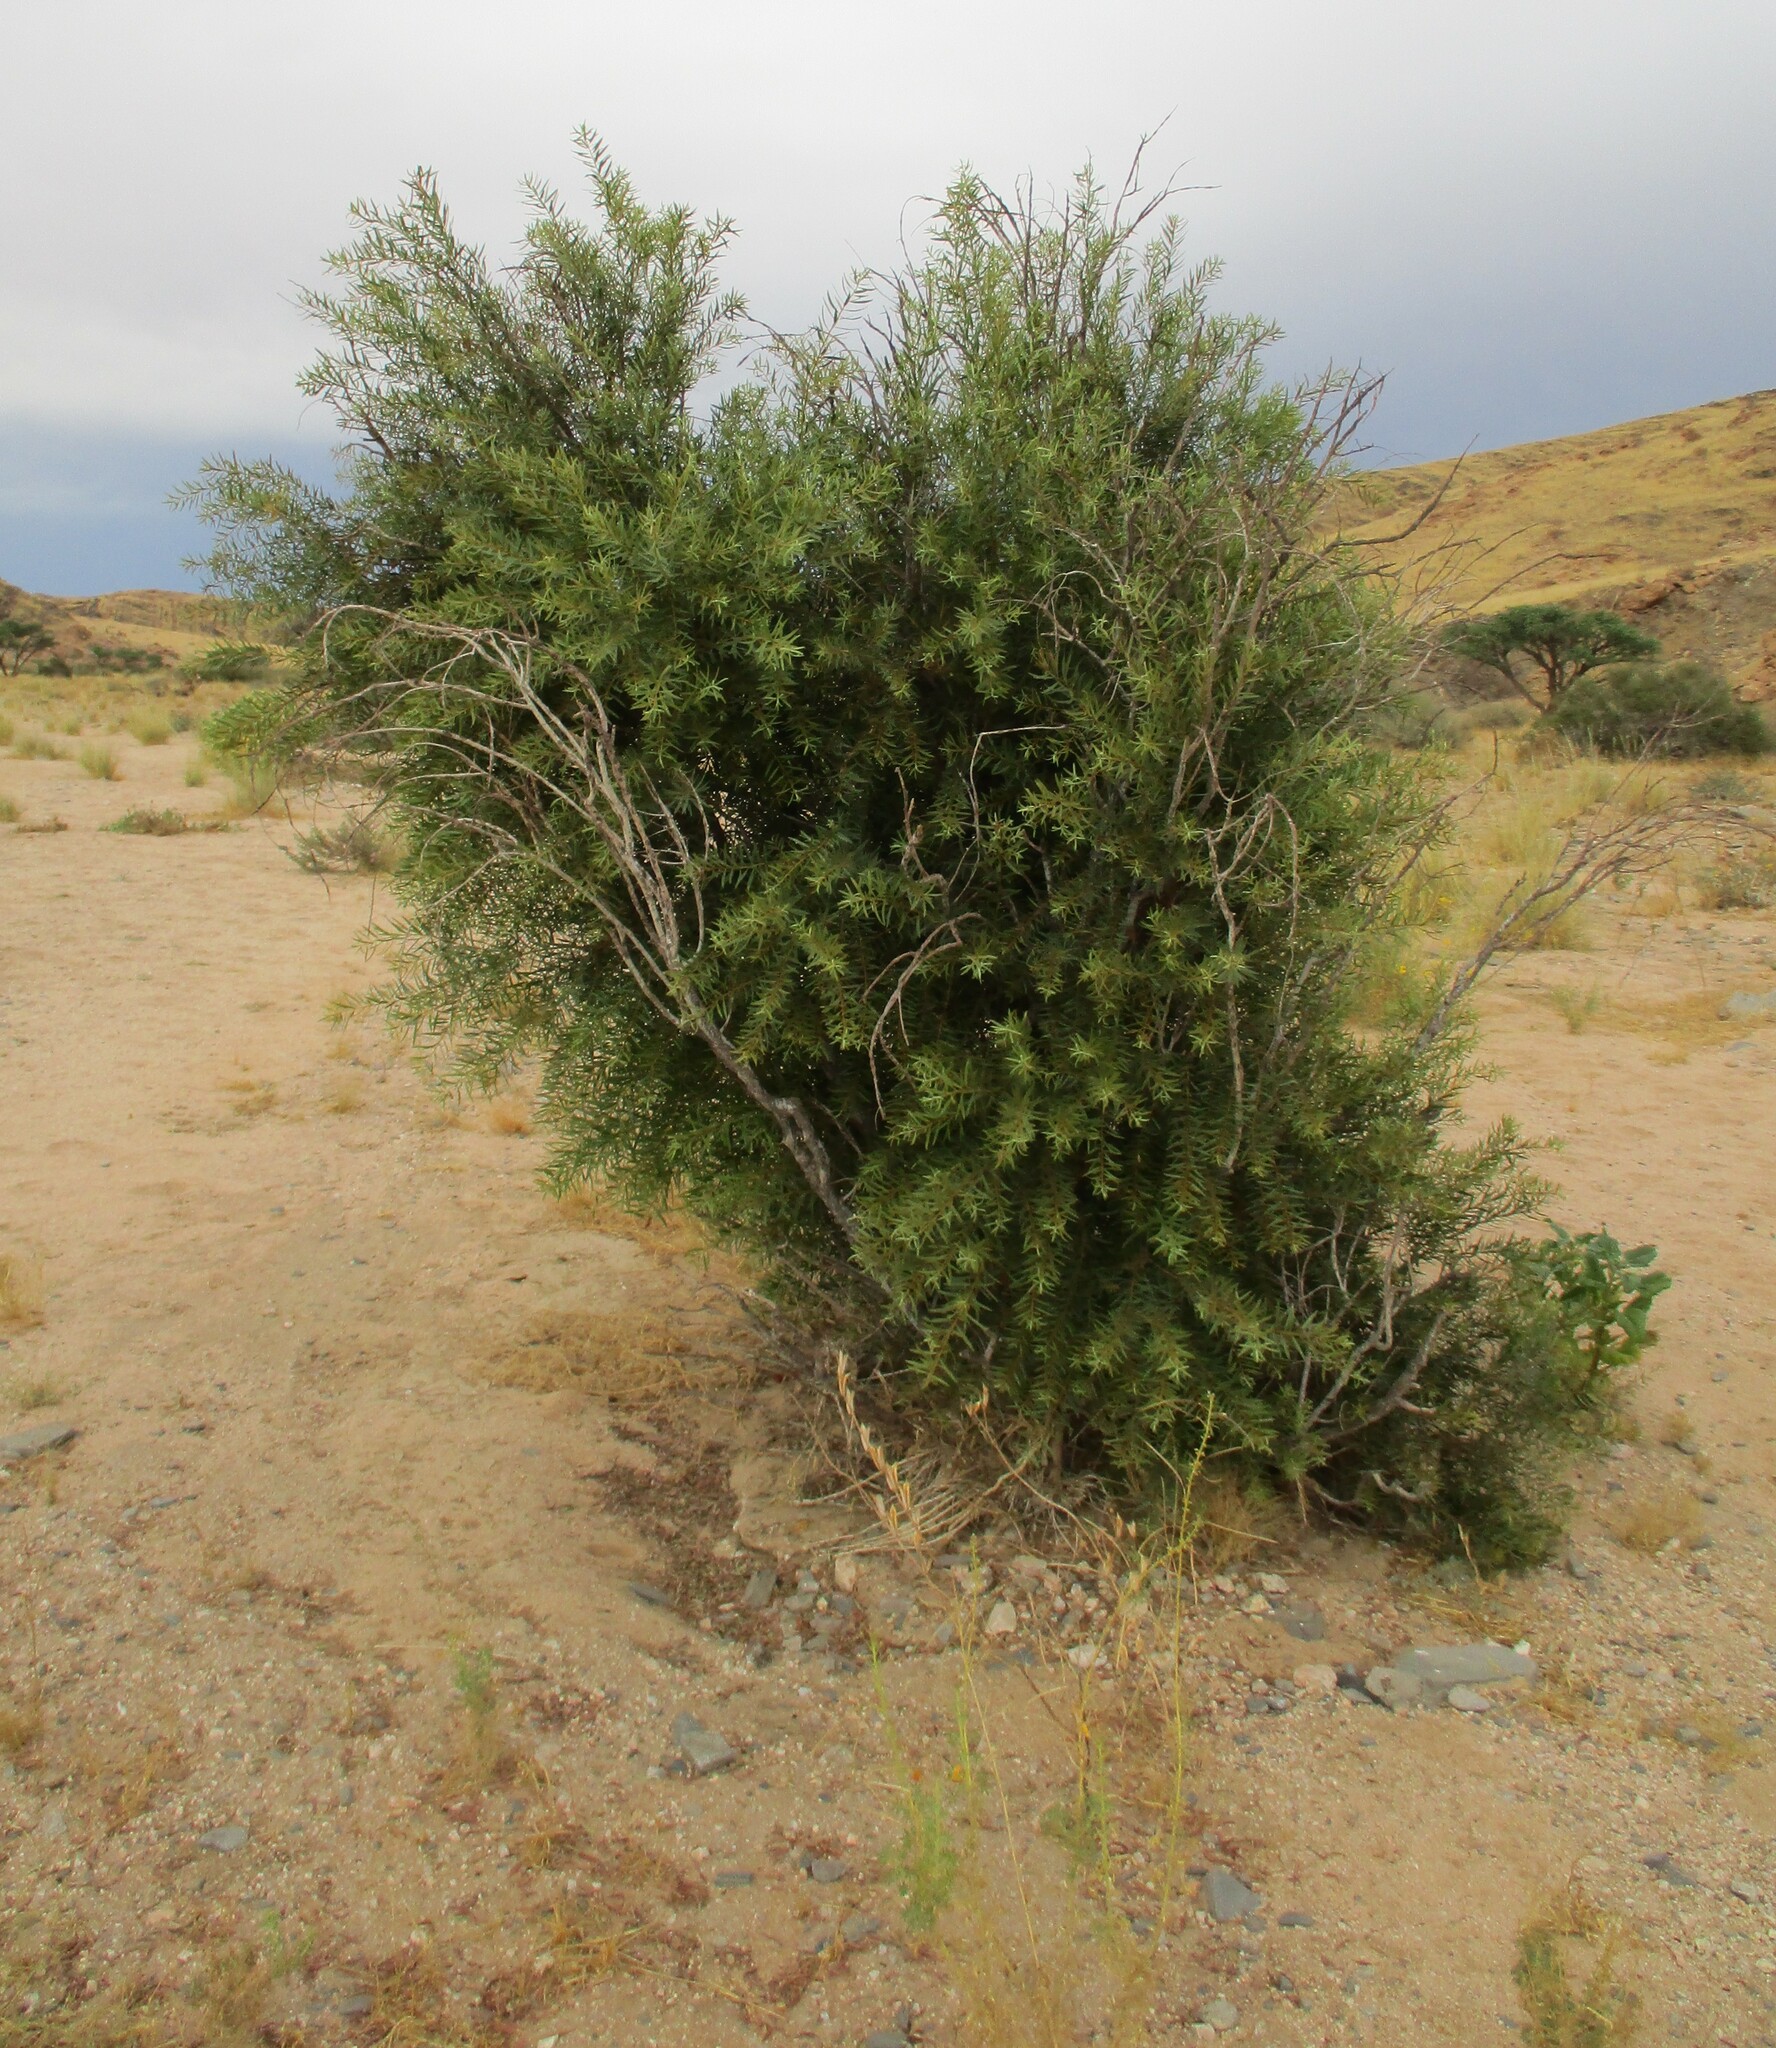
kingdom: Plantae
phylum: Tracheophyta
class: Magnoliopsida
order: Ericales
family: Ebenaceae
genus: Euclea
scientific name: Euclea pseudebenus
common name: Black ebony
